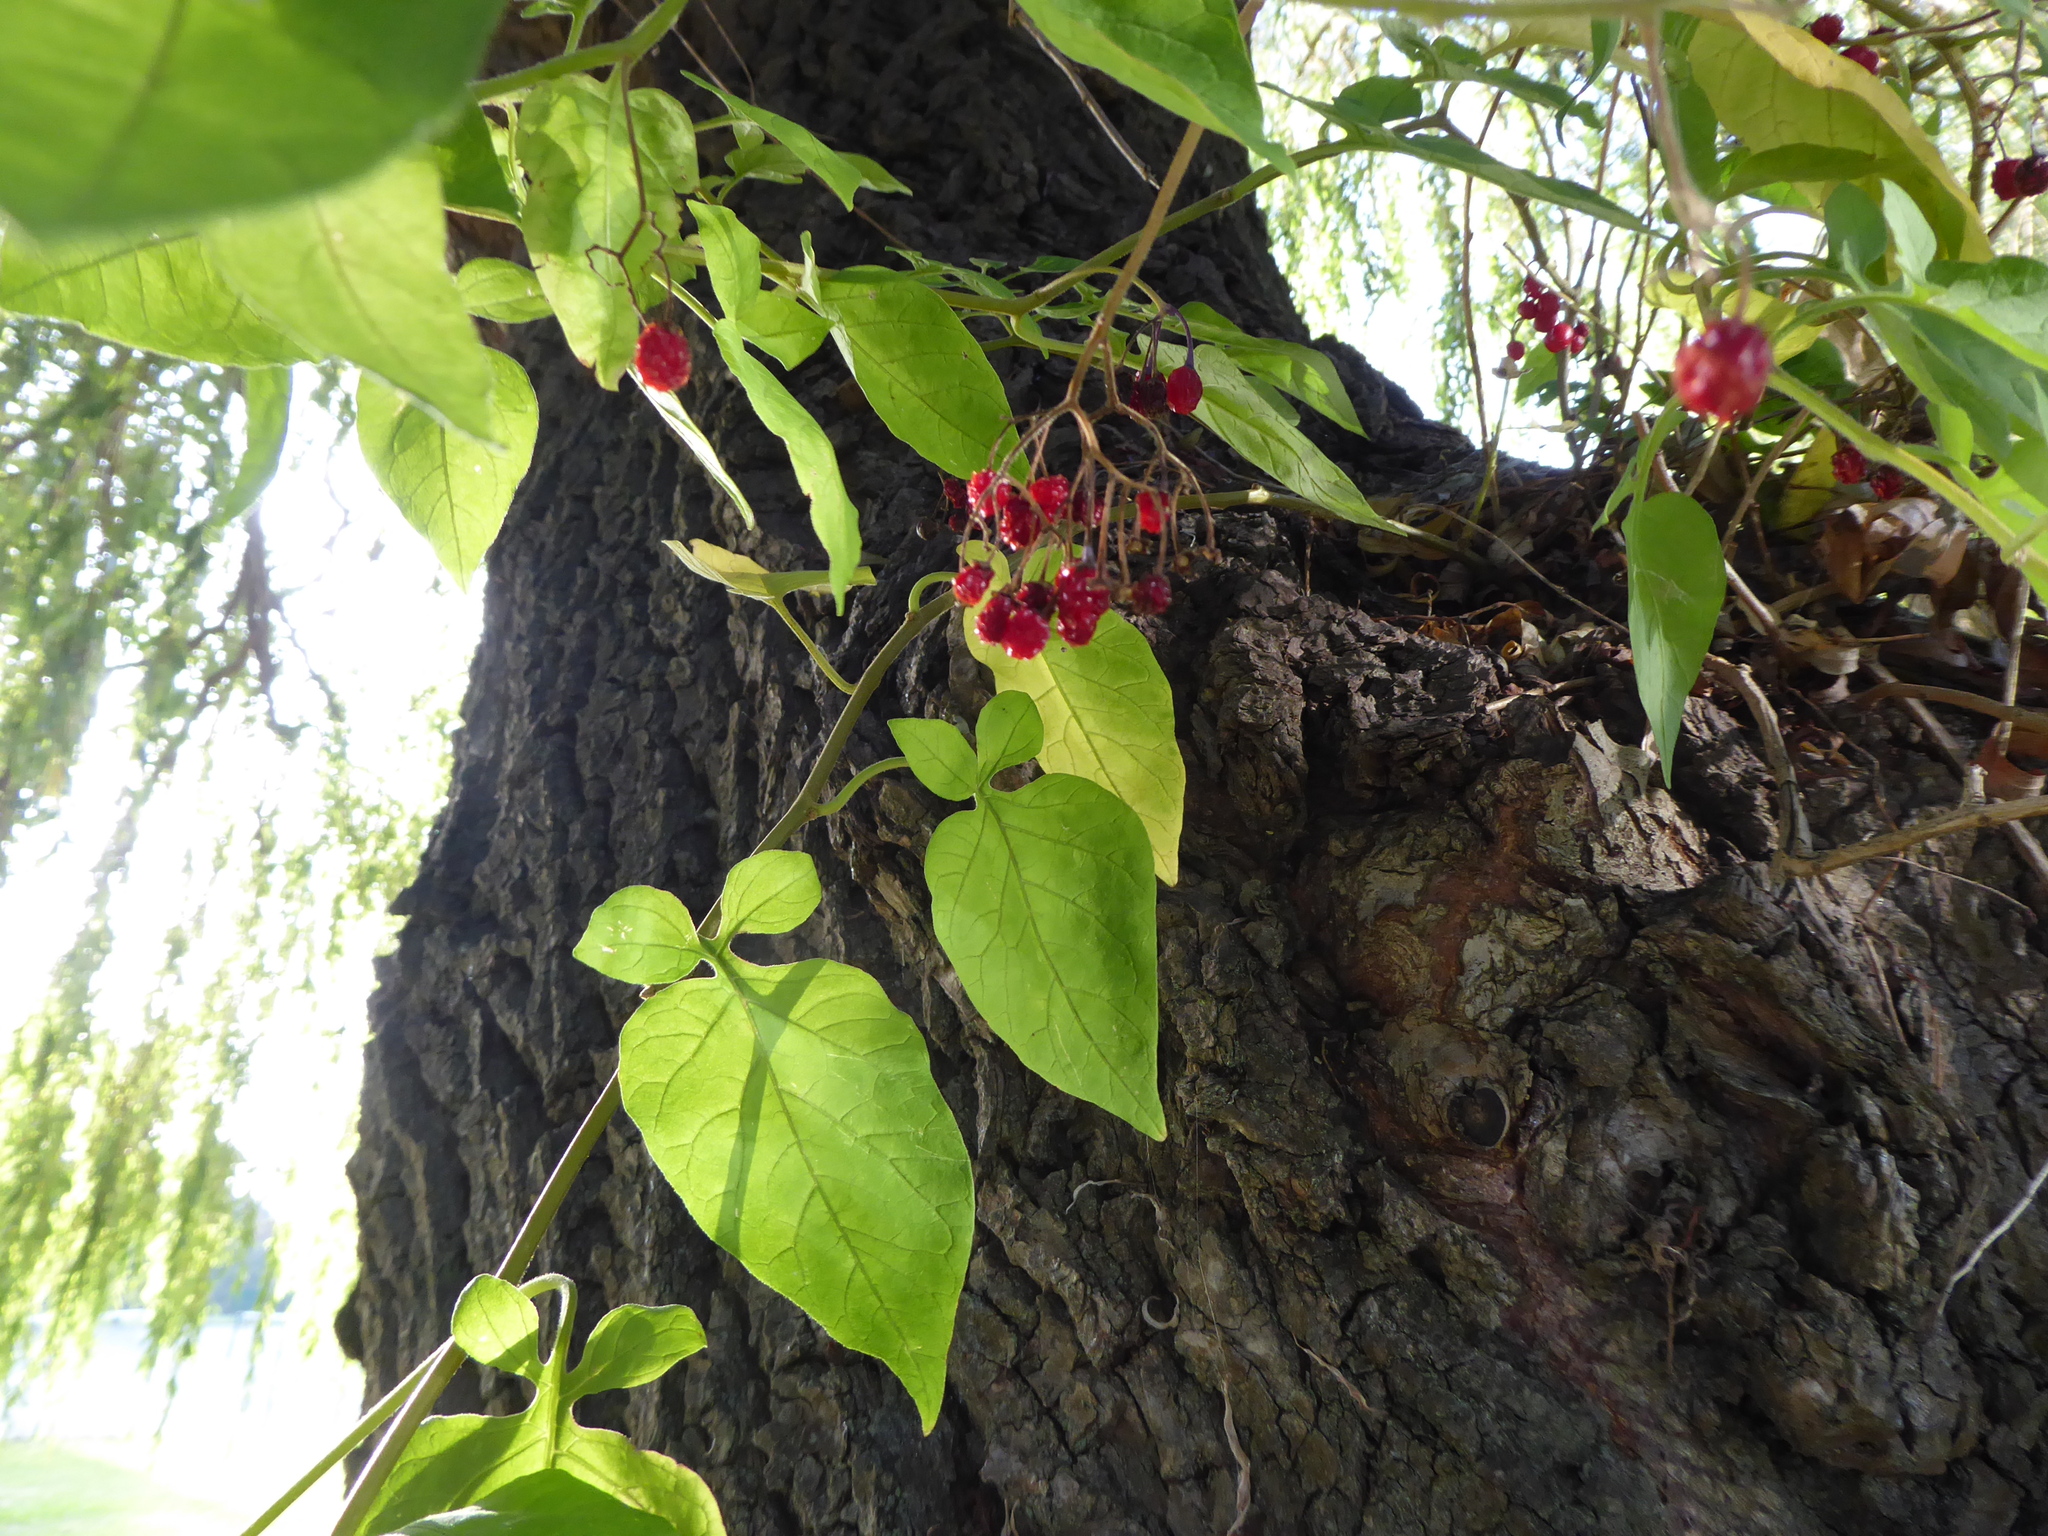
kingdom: Plantae
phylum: Tracheophyta
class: Magnoliopsida
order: Solanales
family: Solanaceae
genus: Solanum
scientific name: Solanum dulcamara
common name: Climbing nightshade
